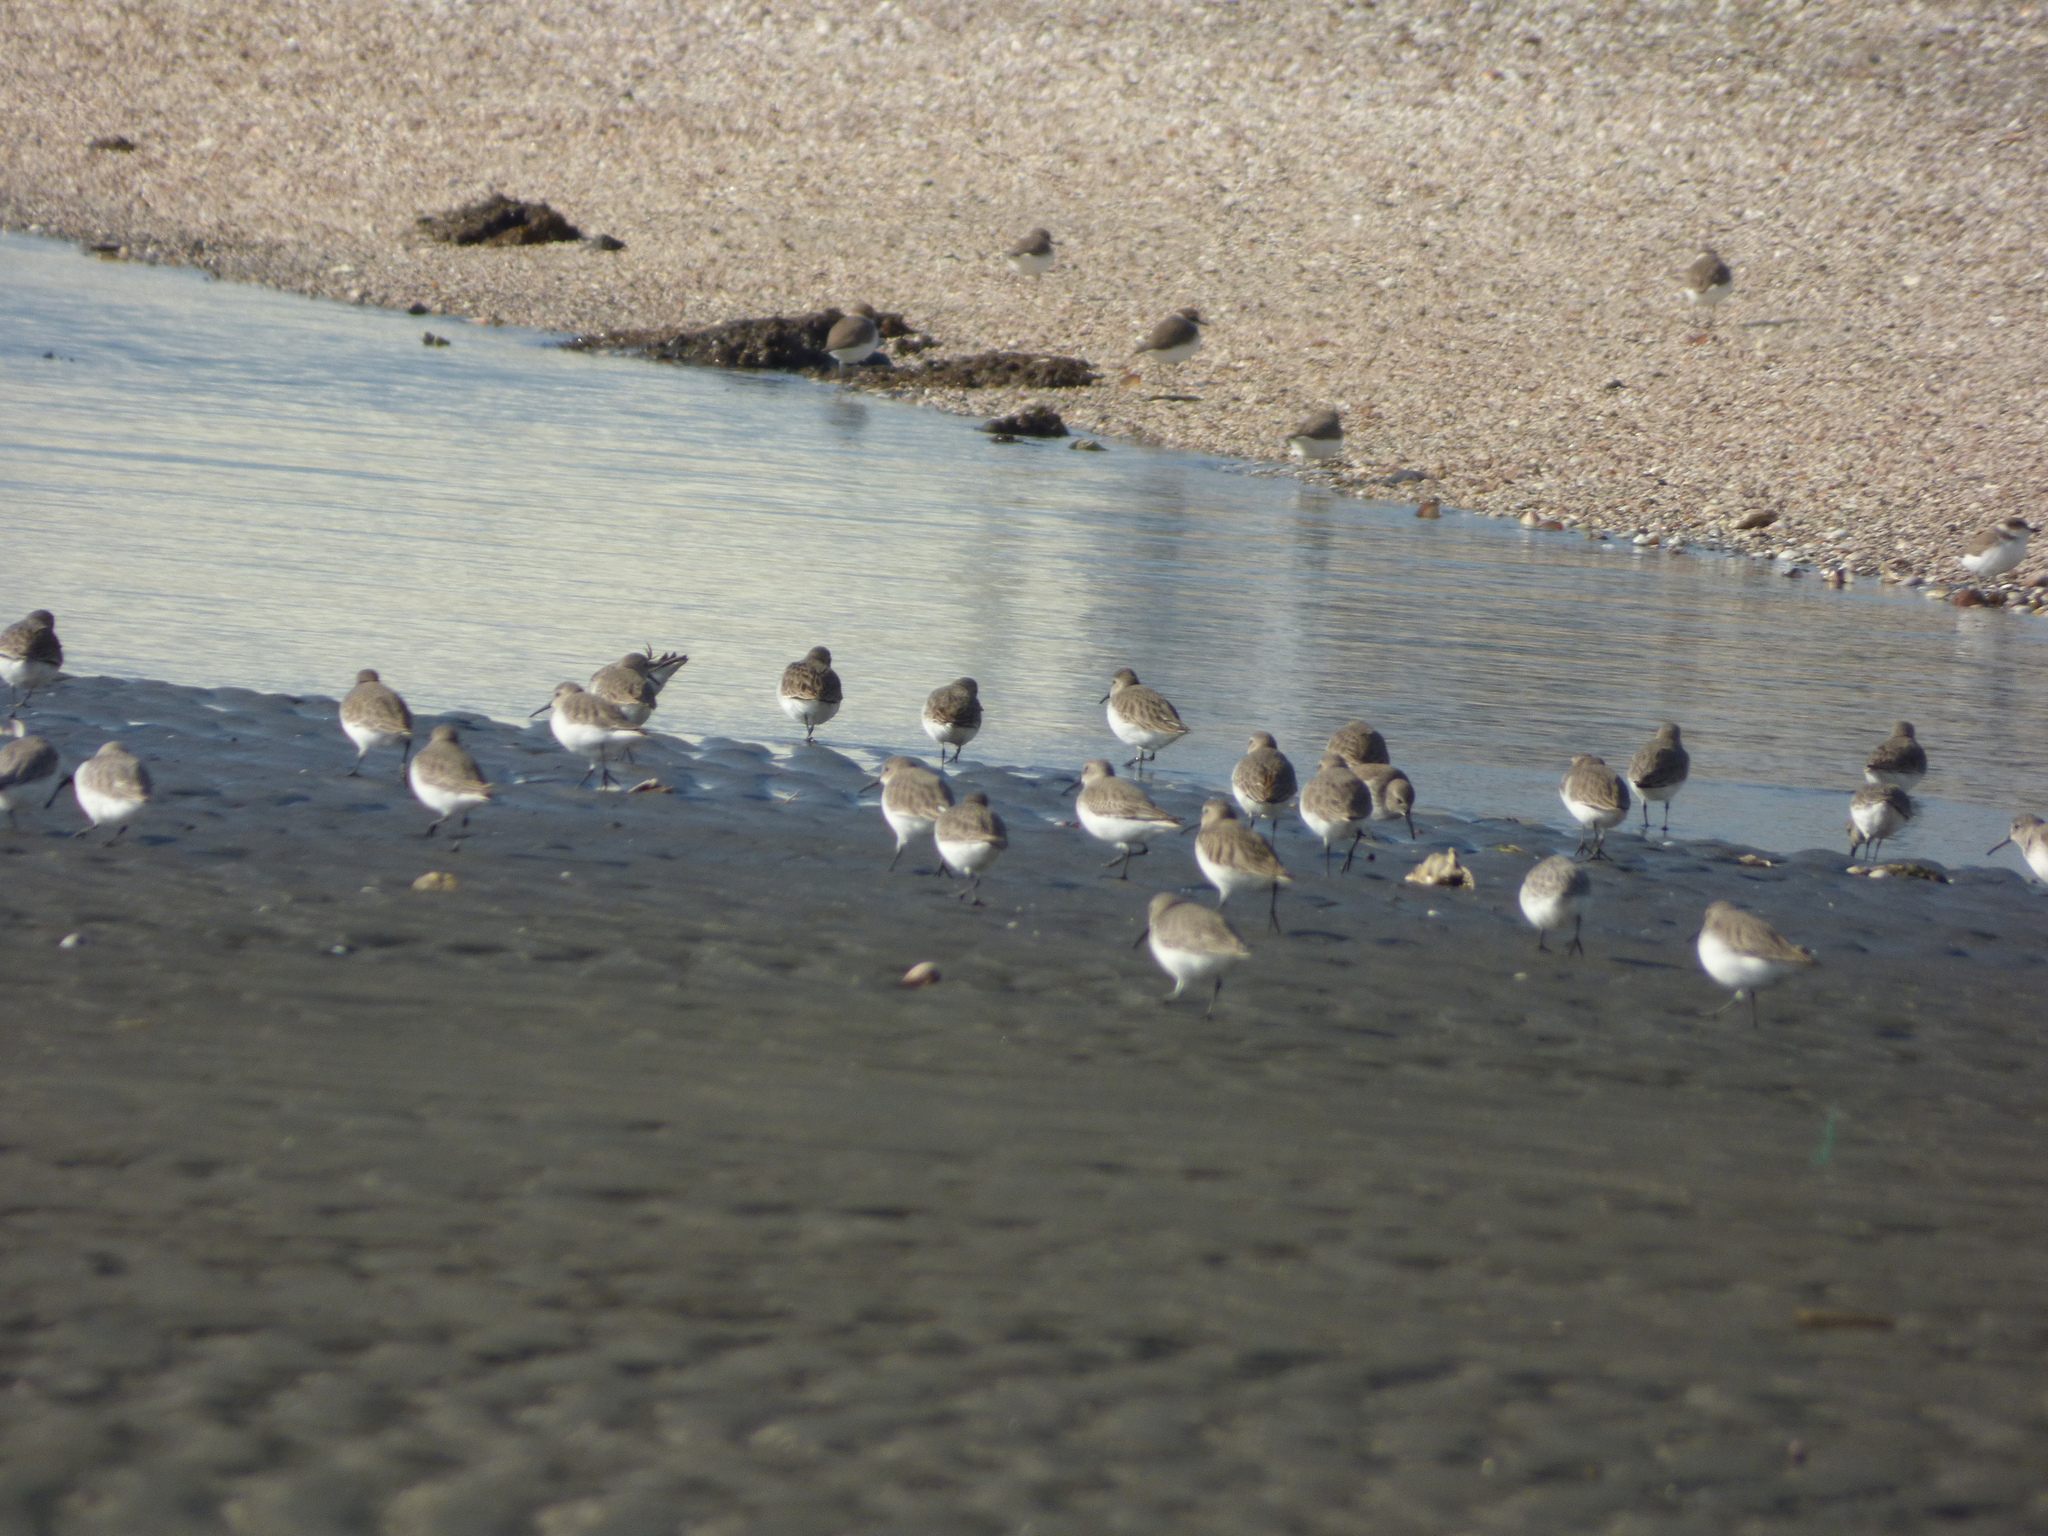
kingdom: Animalia
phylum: Chordata
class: Aves
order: Charadriiformes
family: Scolopacidae
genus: Calidris
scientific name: Calidris alpina
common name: Dunlin
